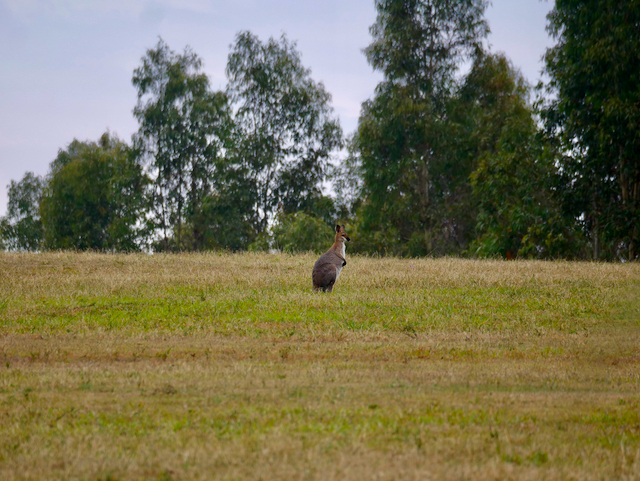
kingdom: Animalia
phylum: Chordata
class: Mammalia
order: Diprotodontia
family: Macropodidae
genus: Notamacropus
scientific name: Notamacropus rufogriseus
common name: Red-necked wallaby
